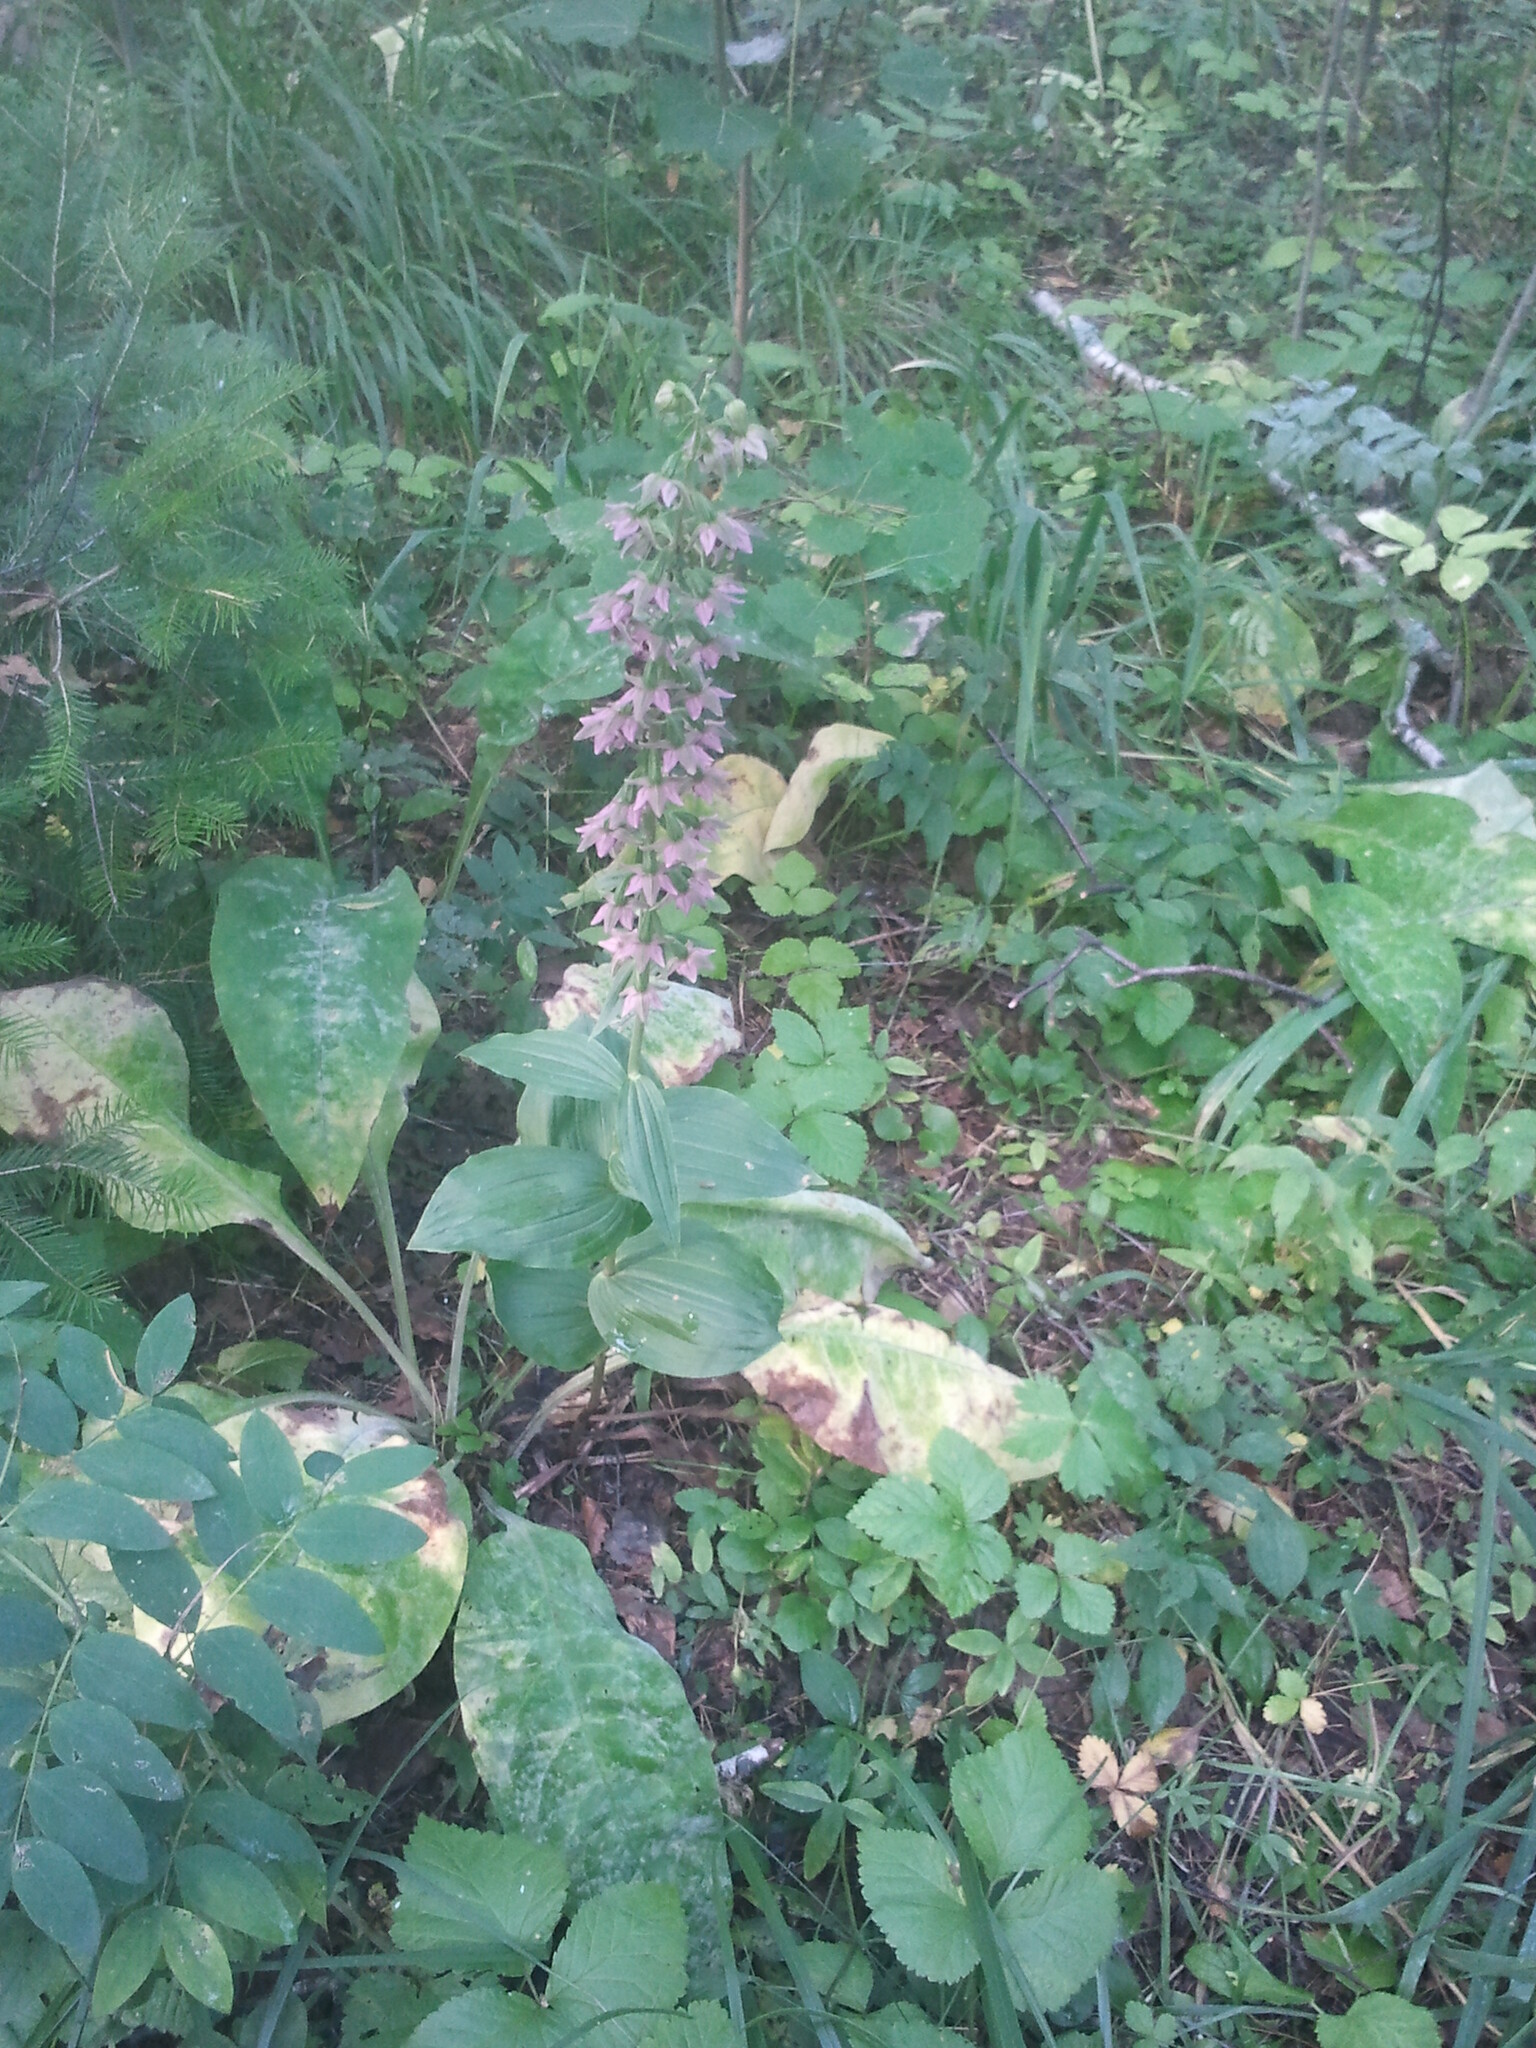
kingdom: Plantae
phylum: Tracheophyta
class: Liliopsida
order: Asparagales
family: Orchidaceae
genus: Epipactis
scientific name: Epipactis helleborine
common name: Broad-leaved helleborine
